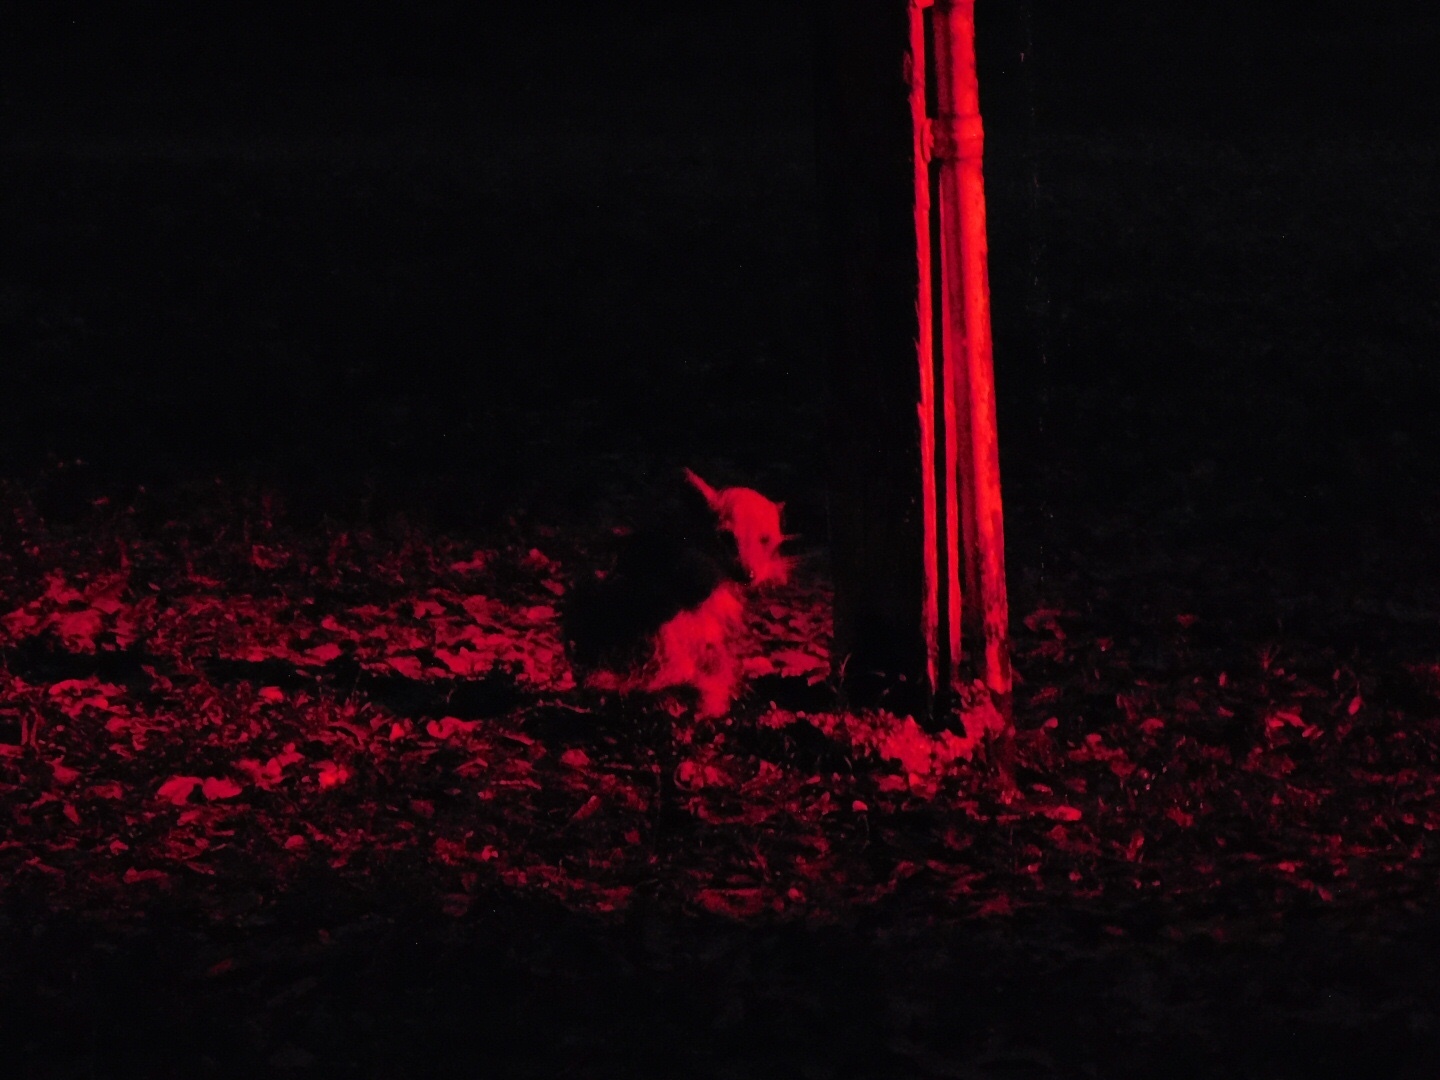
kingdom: Animalia
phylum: Chordata
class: Mammalia
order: Carnivora
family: Procyonidae
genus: Procyon
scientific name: Procyon lotor
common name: Raccoon
